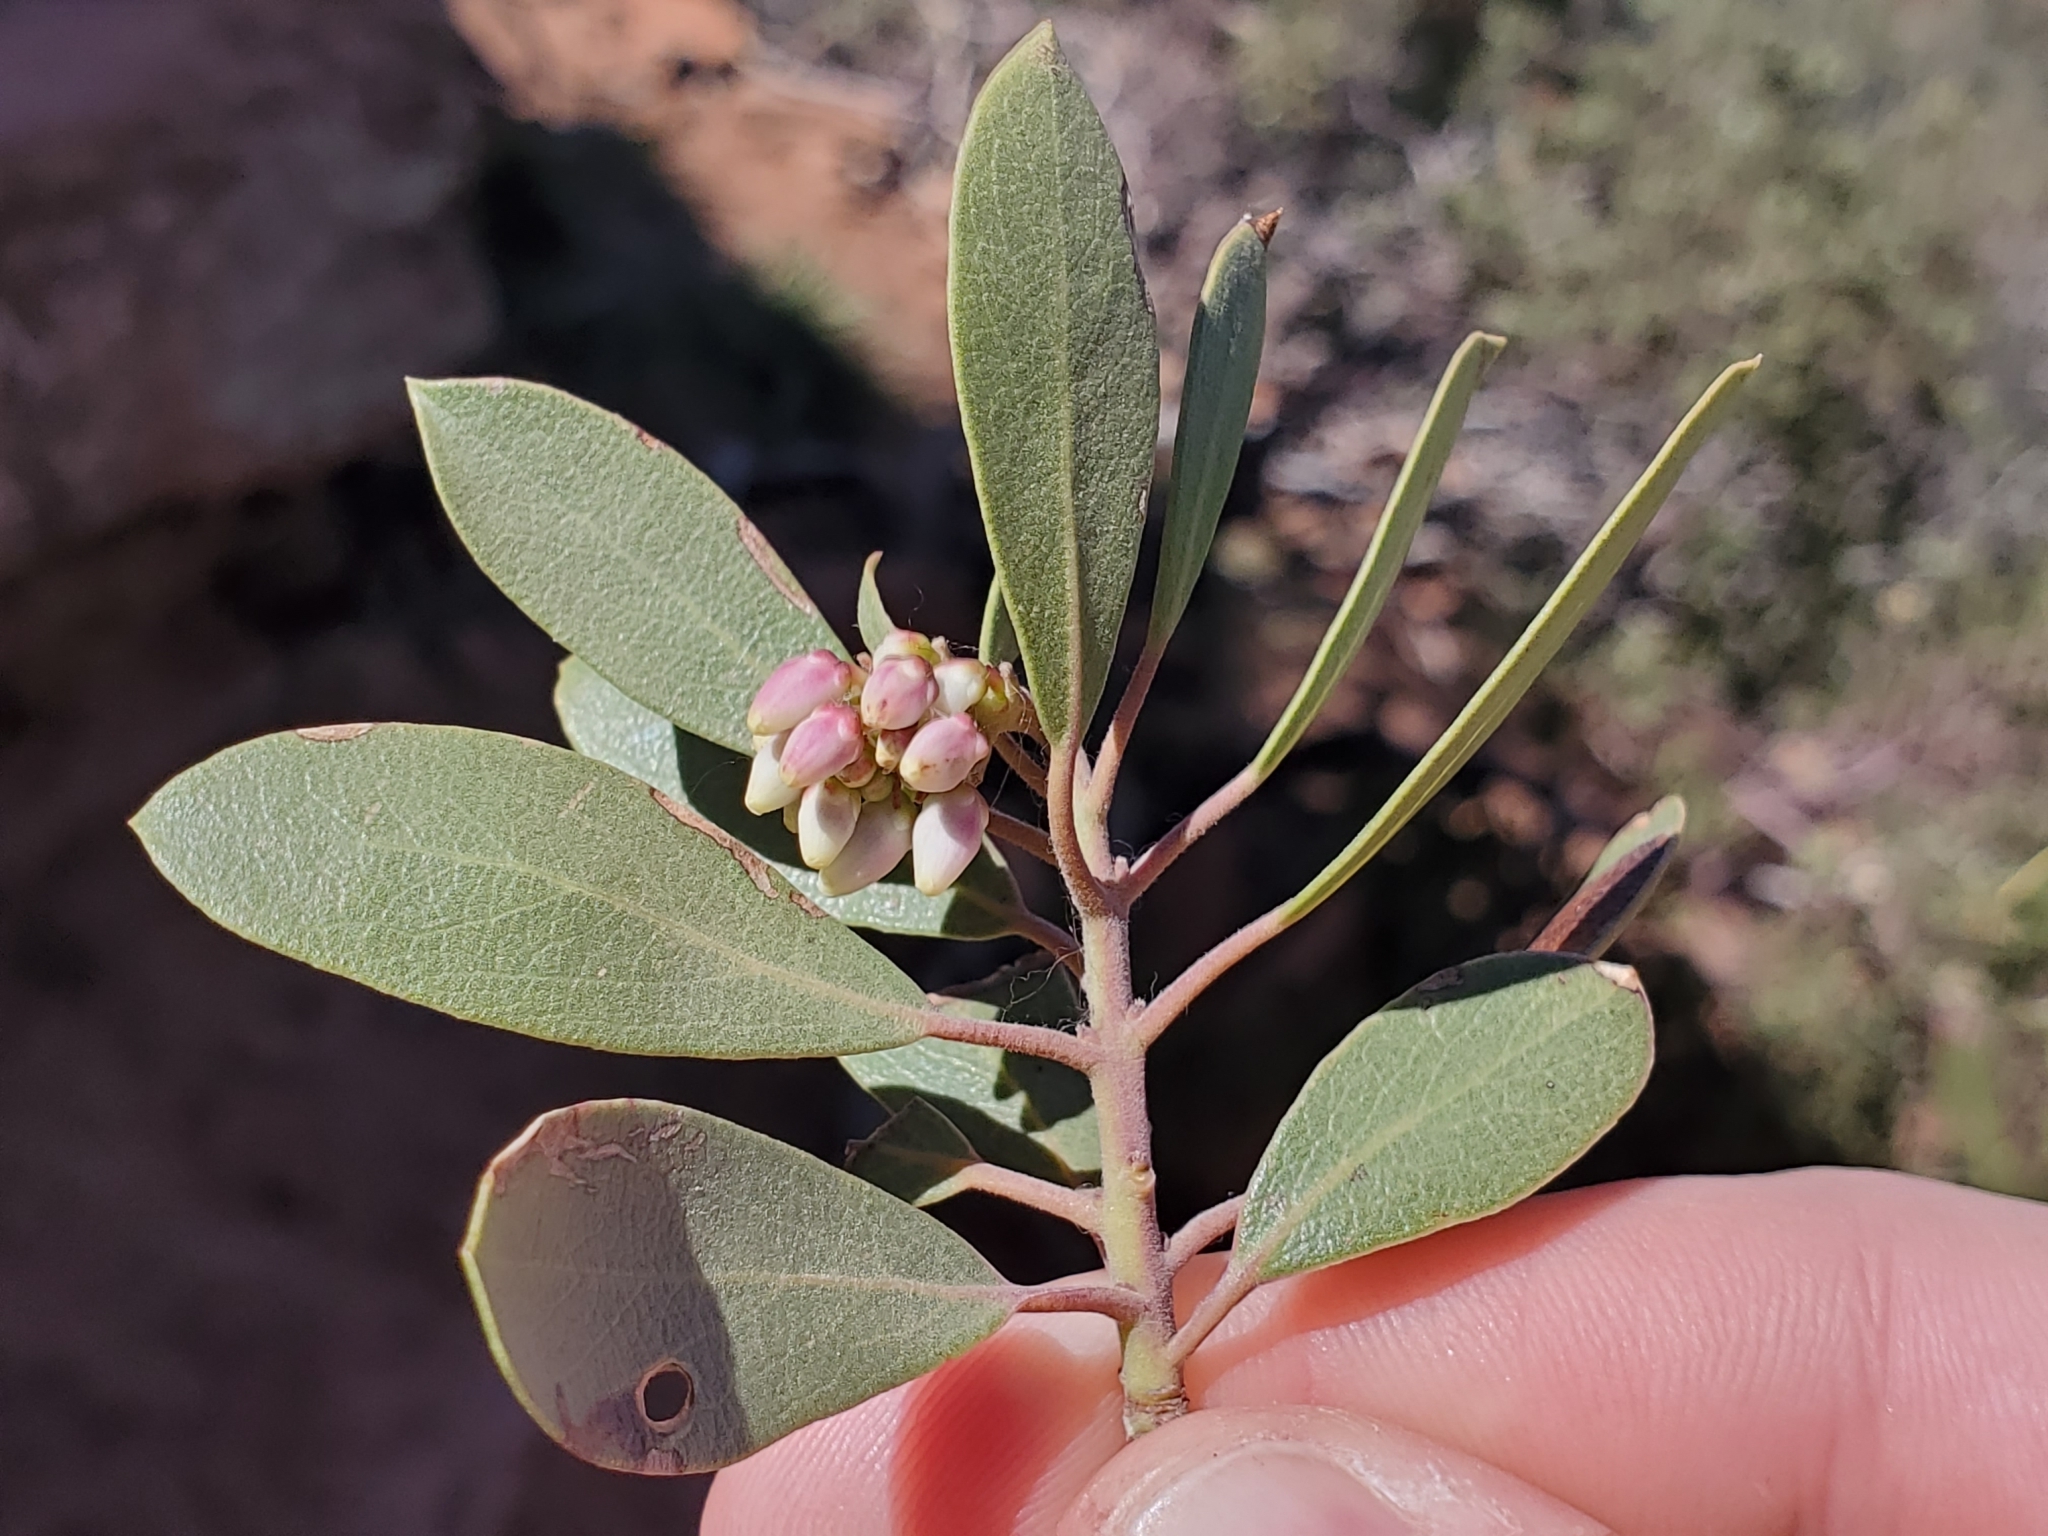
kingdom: Plantae
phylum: Tracheophyta
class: Magnoliopsida
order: Ericales
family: Ericaceae
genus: Arctostaphylos
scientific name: Arctostaphylos pungens
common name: Mexican manzanita
